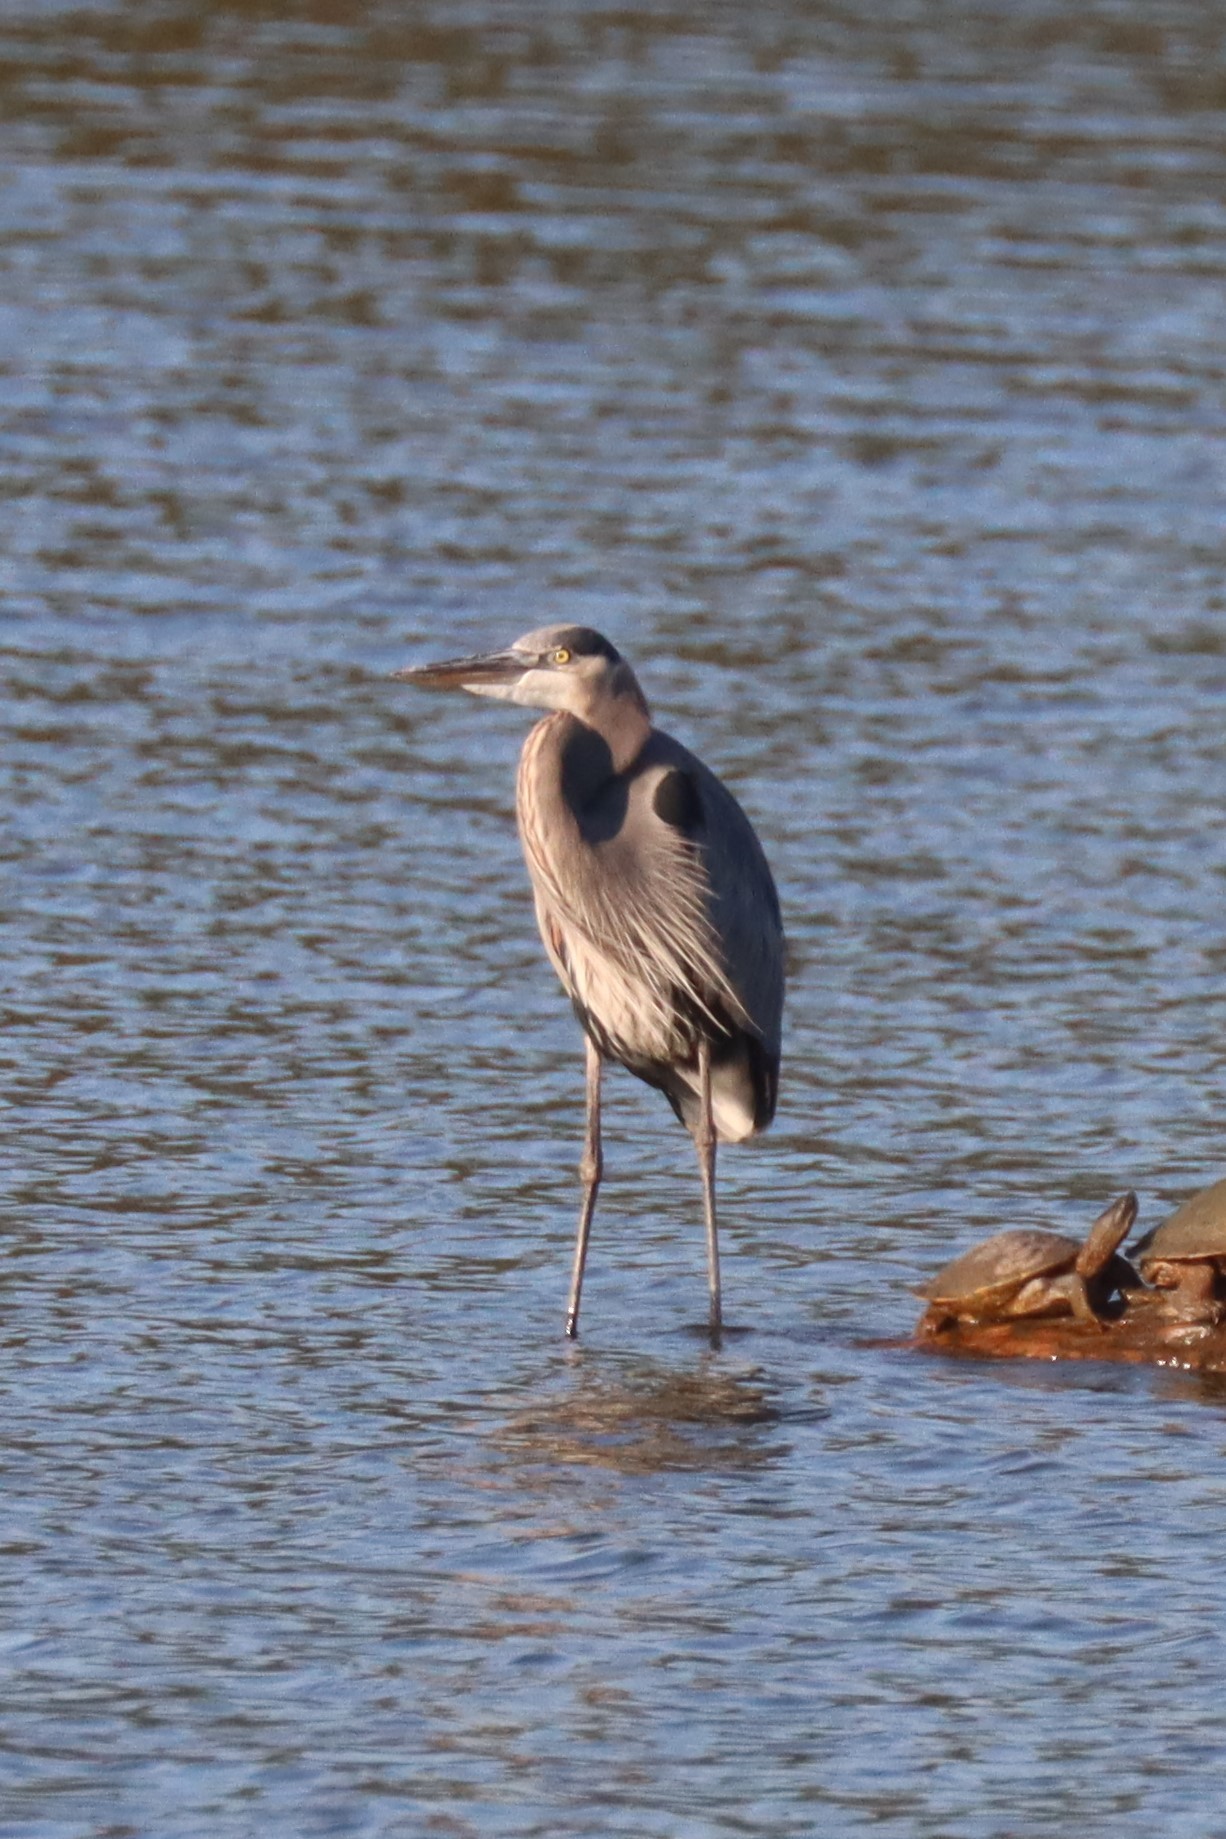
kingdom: Animalia
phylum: Chordata
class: Aves
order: Pelecaniformes
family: Ardeidae
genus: Ardea
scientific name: Ardea herodias
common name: Great blue heron
